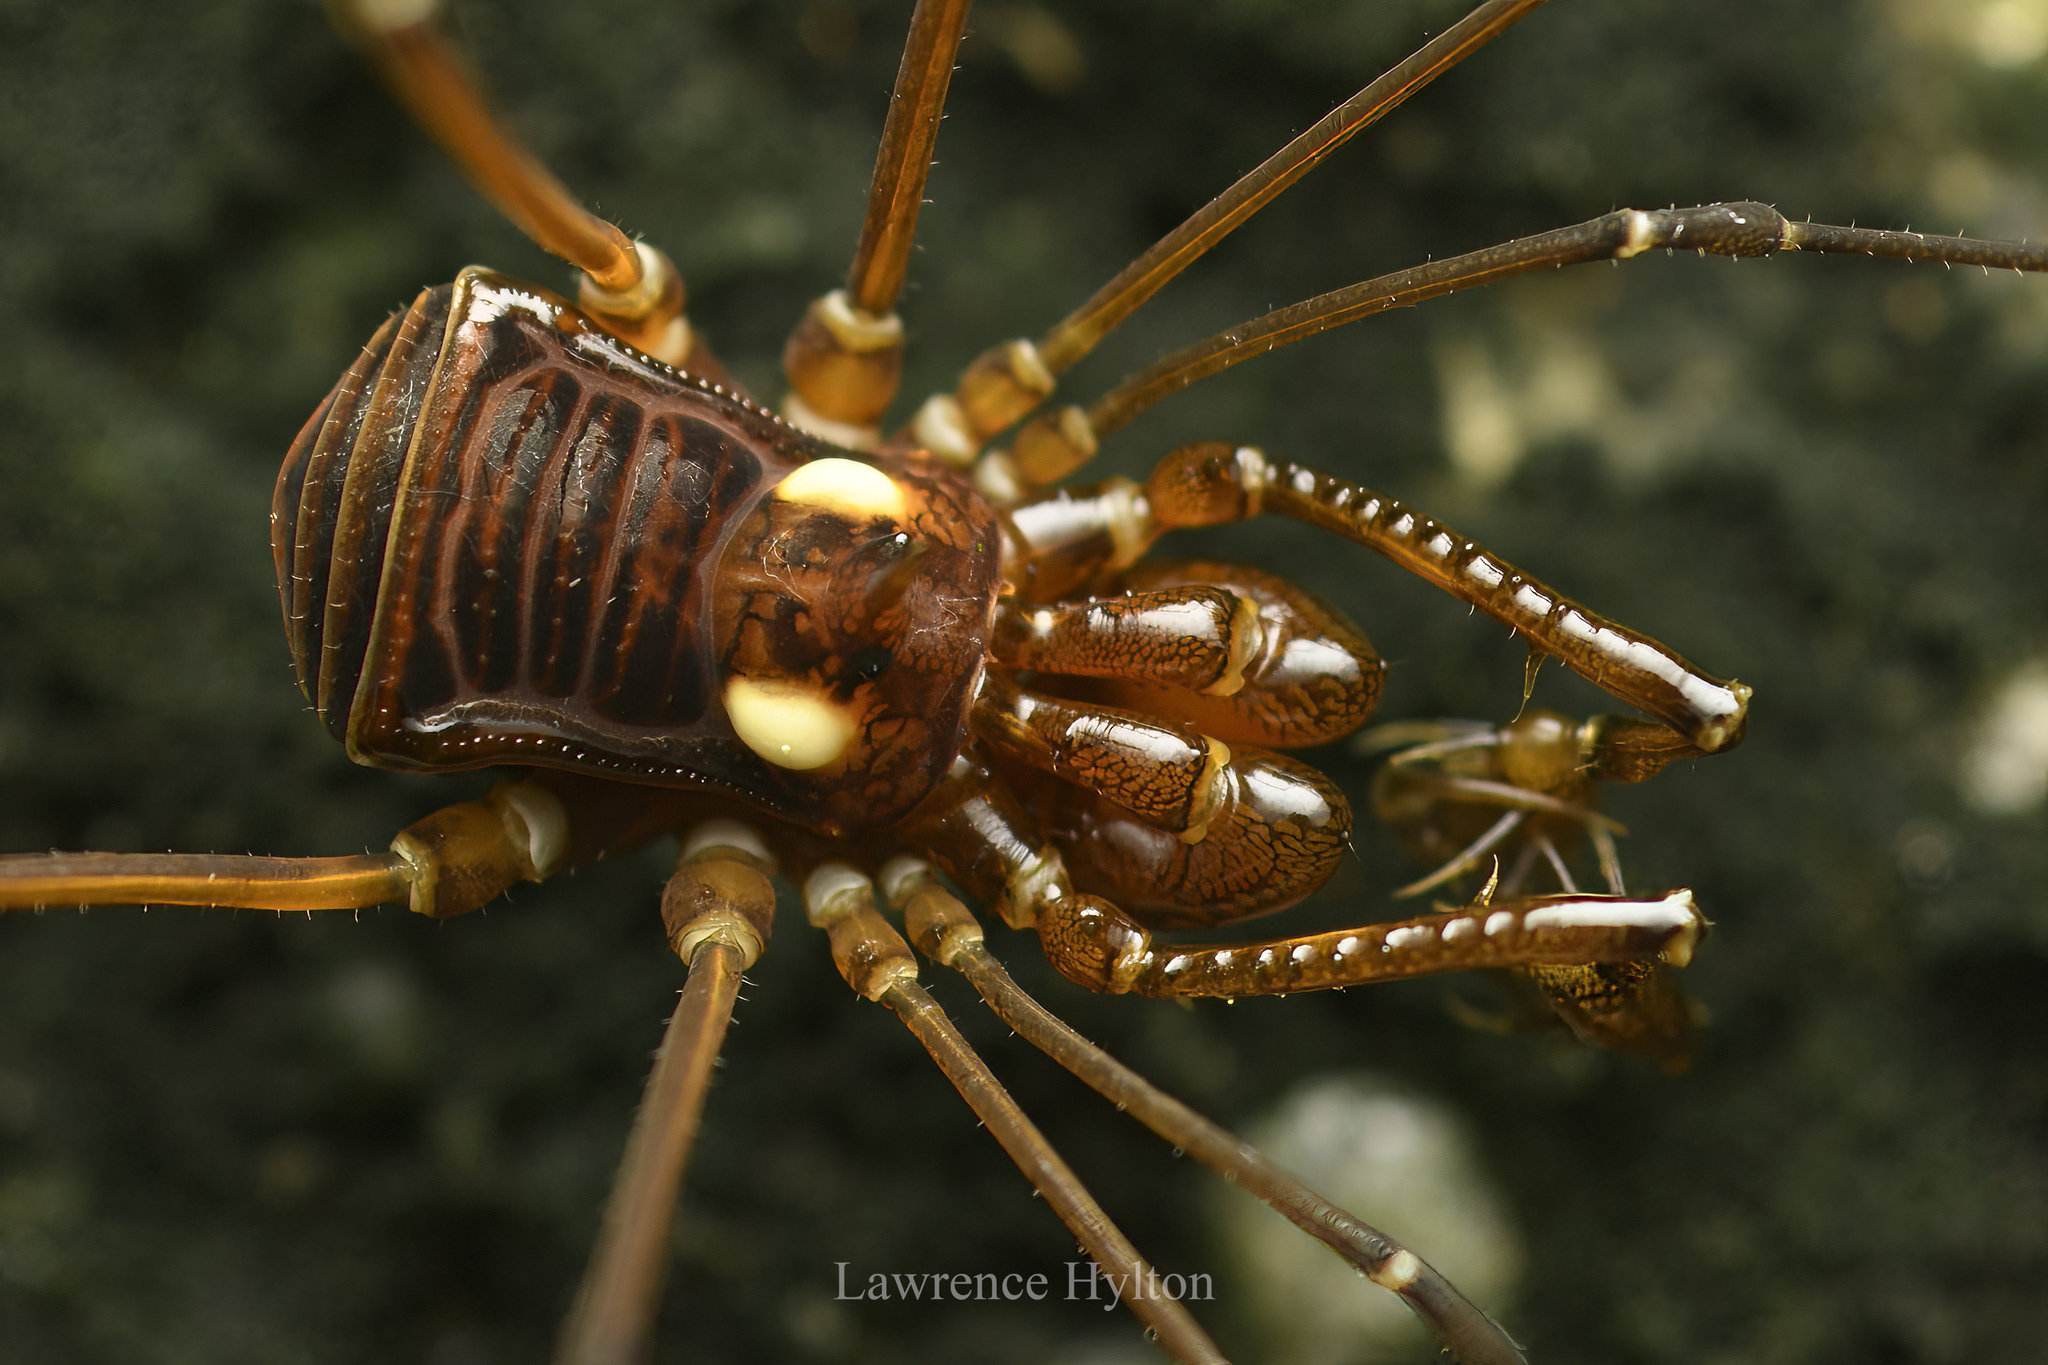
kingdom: Animalia
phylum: Arthropoda
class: Arachnida
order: Opiliones
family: Epedanidae
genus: Heterobiantes
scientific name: Heterobiantes geniculatus
